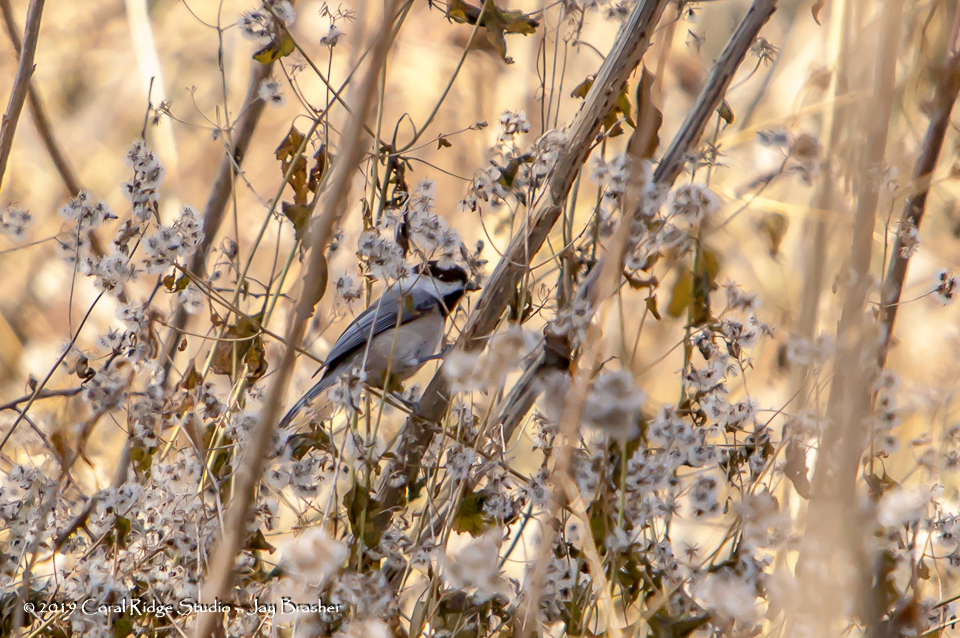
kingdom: Animalia
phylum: Chordata
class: Aves
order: Passeriformes
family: Paridae
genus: Poecile
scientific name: Poecile carolinensis
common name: Carolina chickadee
